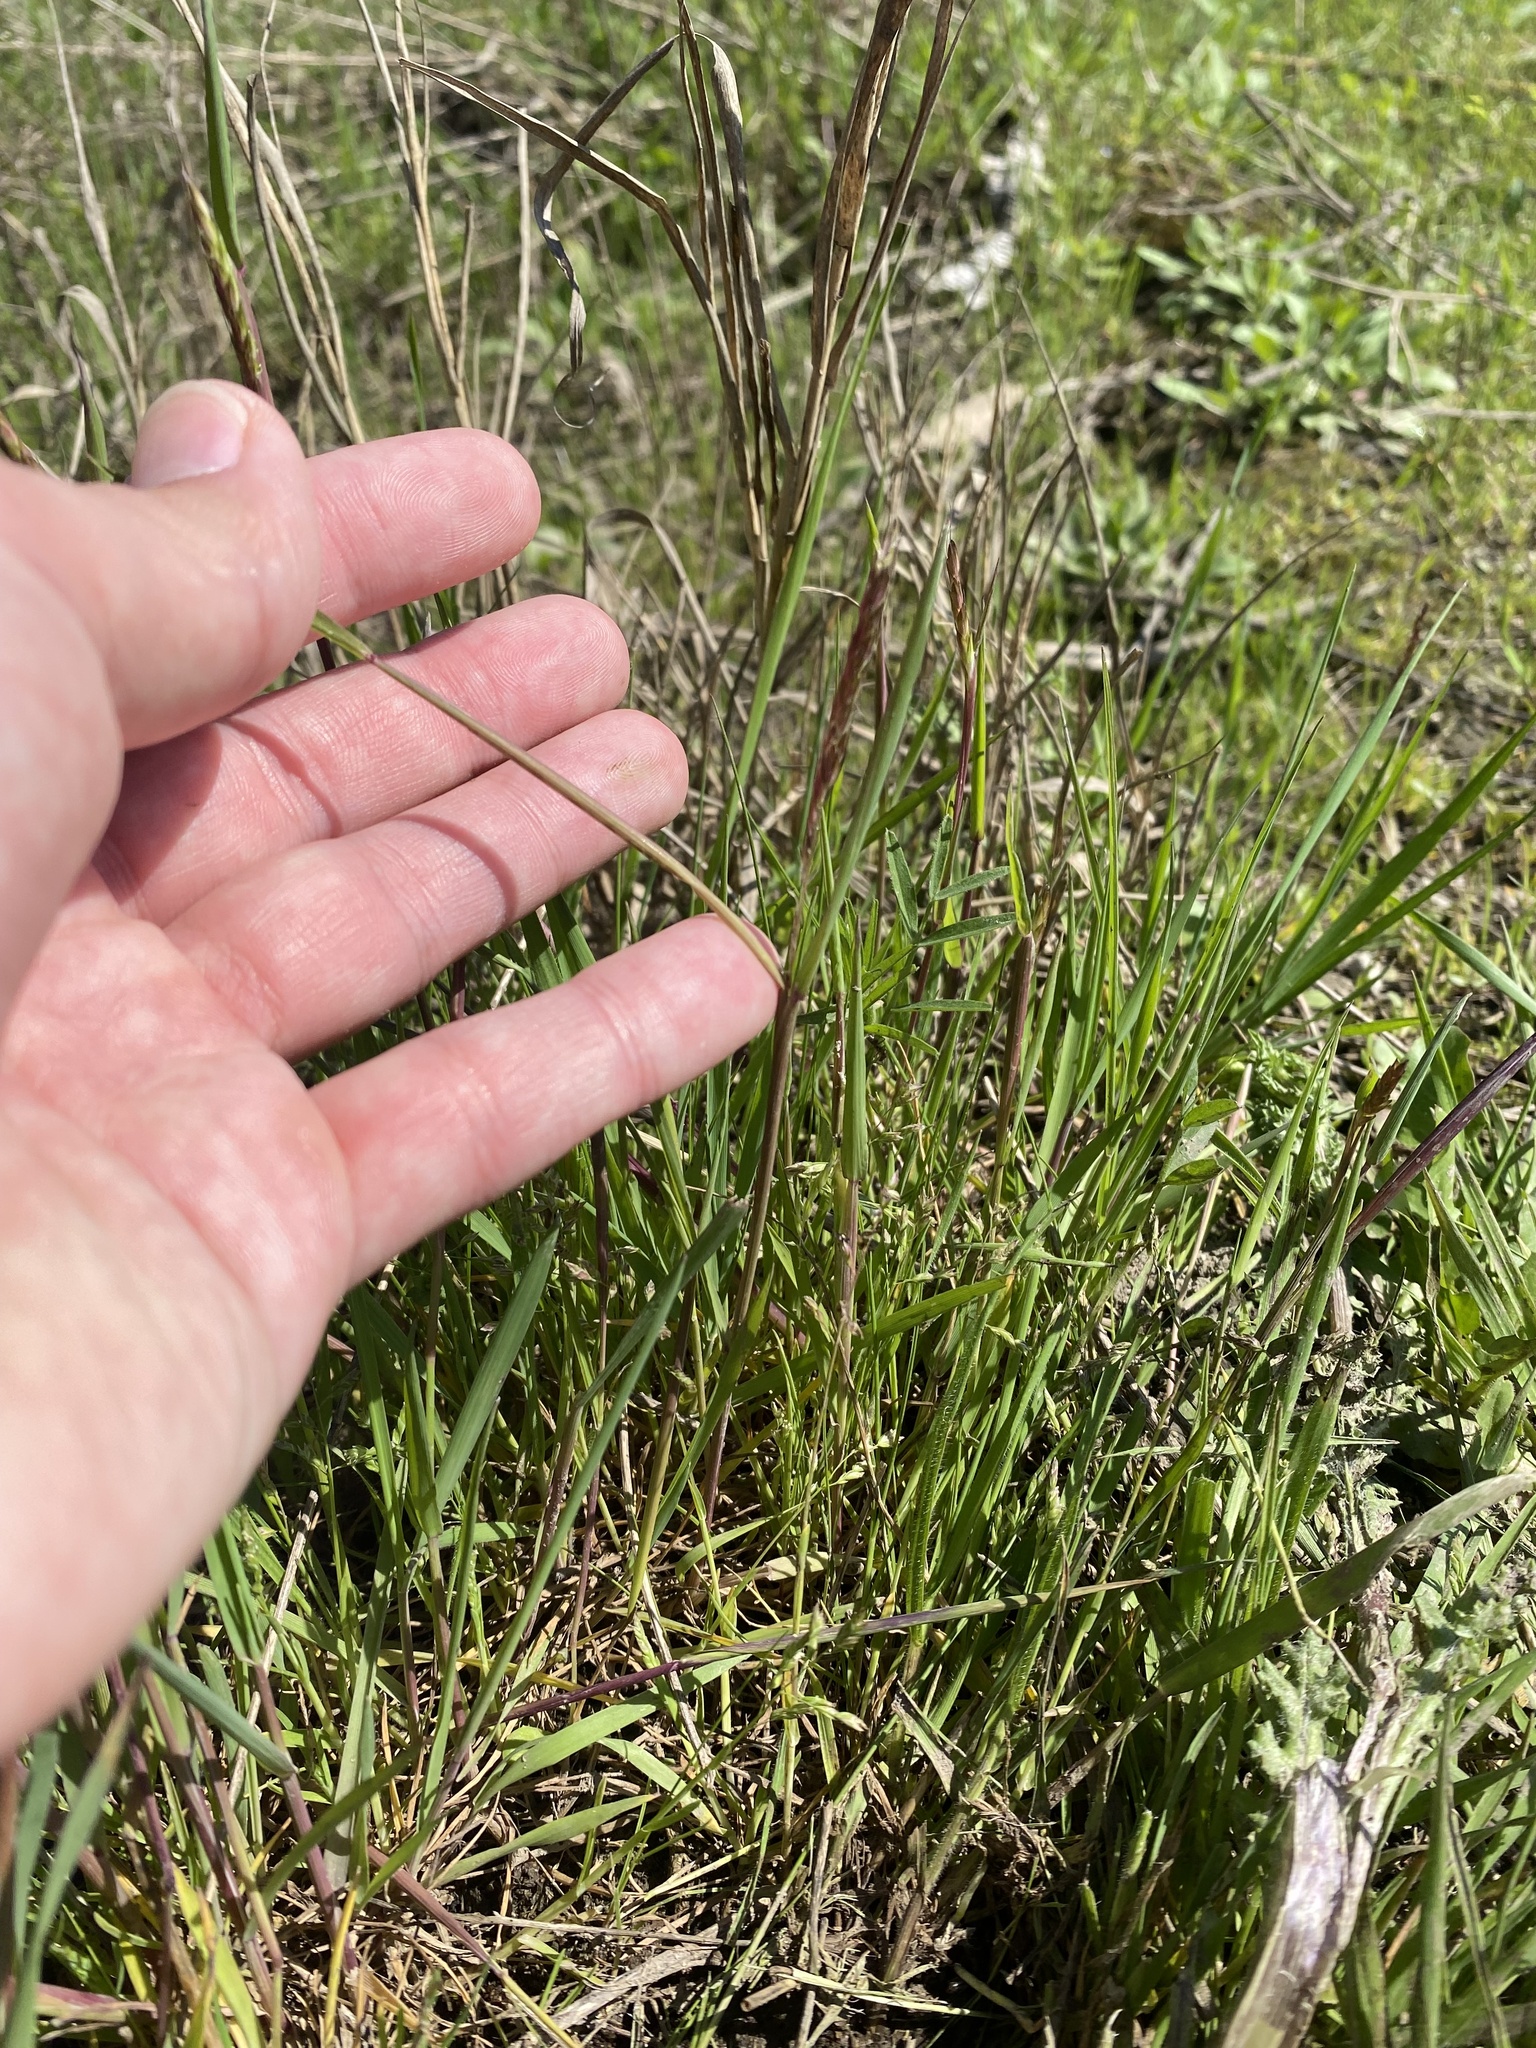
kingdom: Plantae
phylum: Tracheophyta
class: Liliopsida
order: Poales
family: Poaceae
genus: Alopecurus
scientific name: Alopecurus myosuroides
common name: Black-grass
